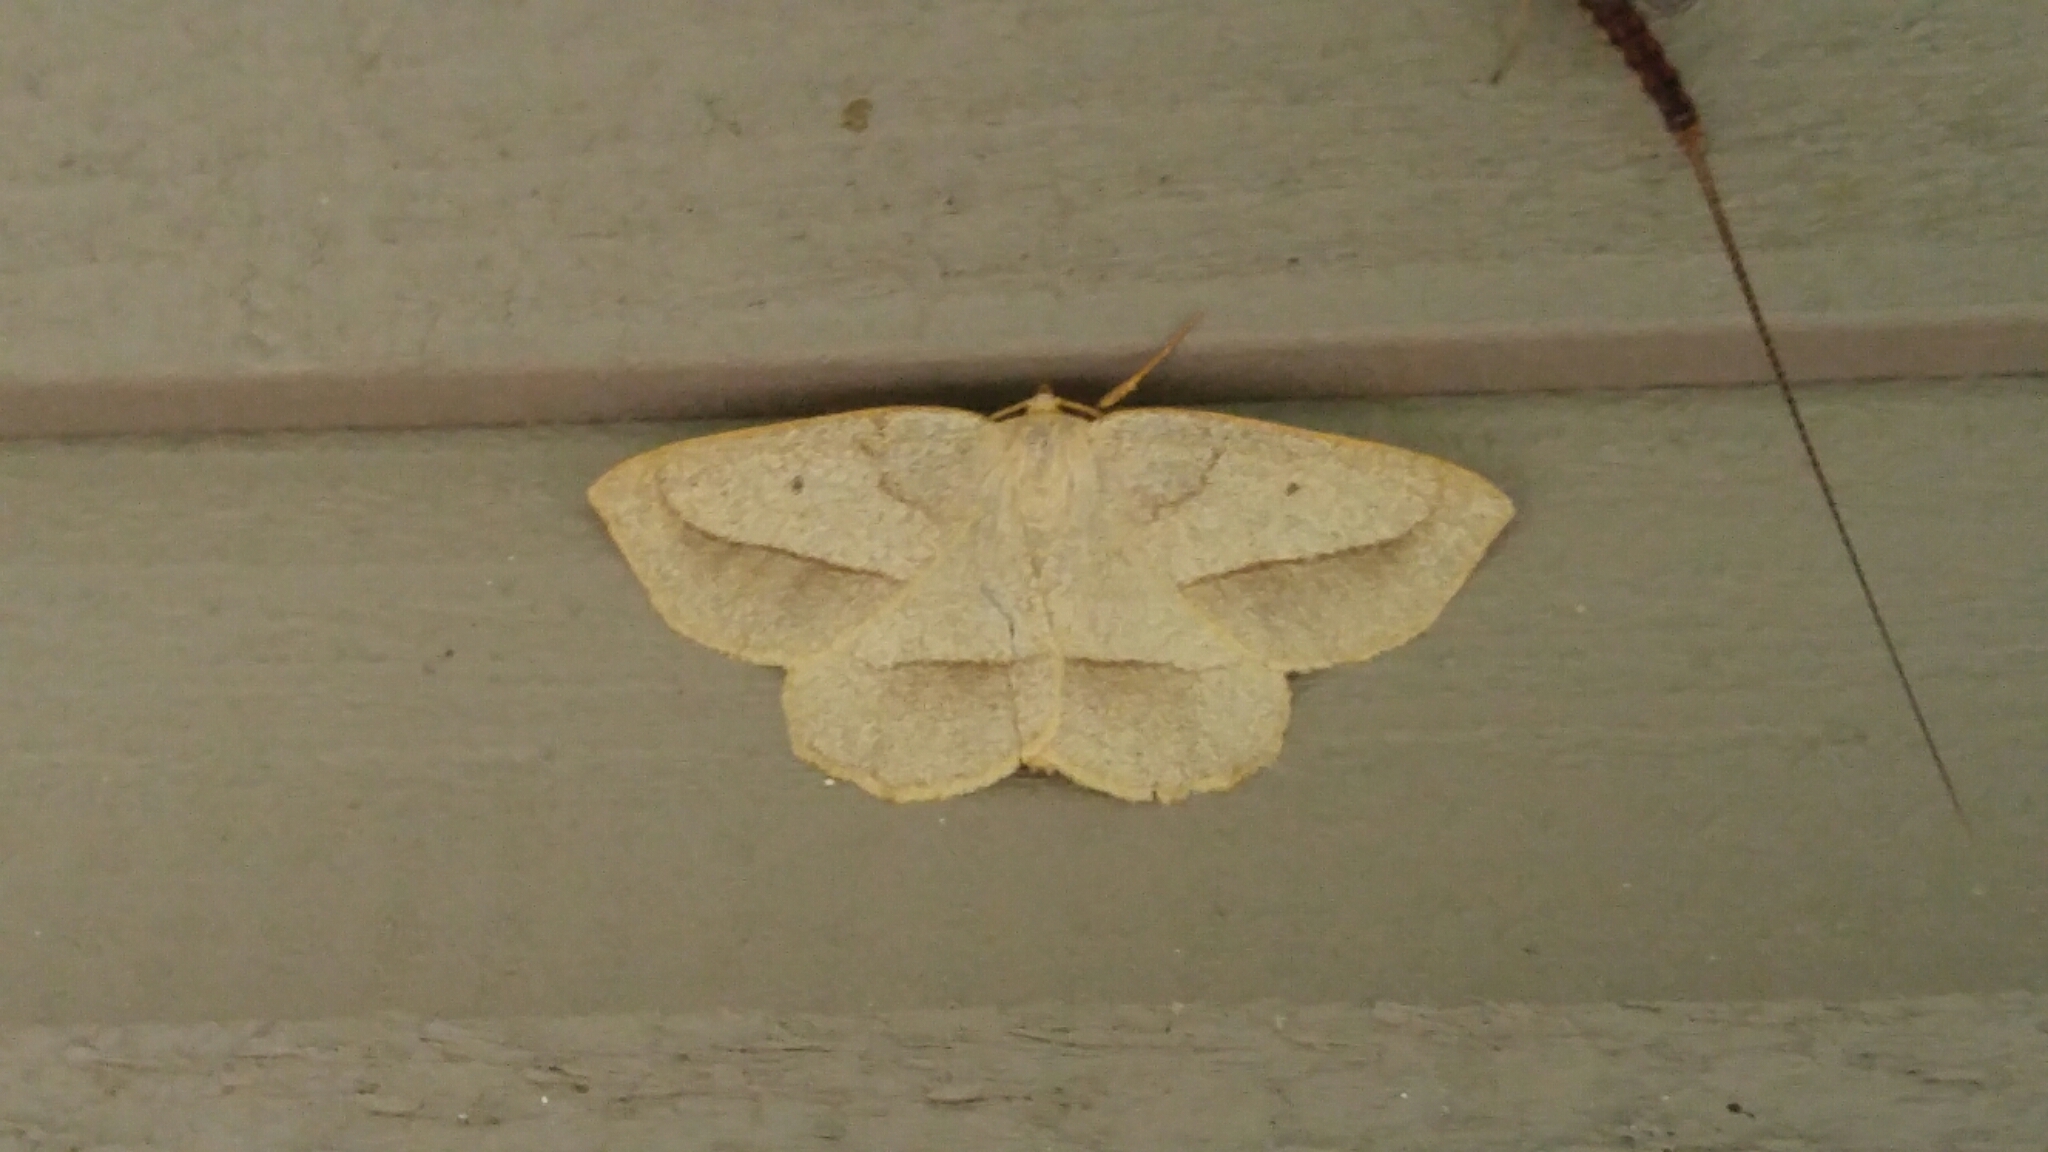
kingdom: Animalia
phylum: Arthropoda
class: Insecta
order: Lepidoptera
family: Geometridae
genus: Euchlaena
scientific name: Euchlaena irraria
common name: Least-marked euchlaena
